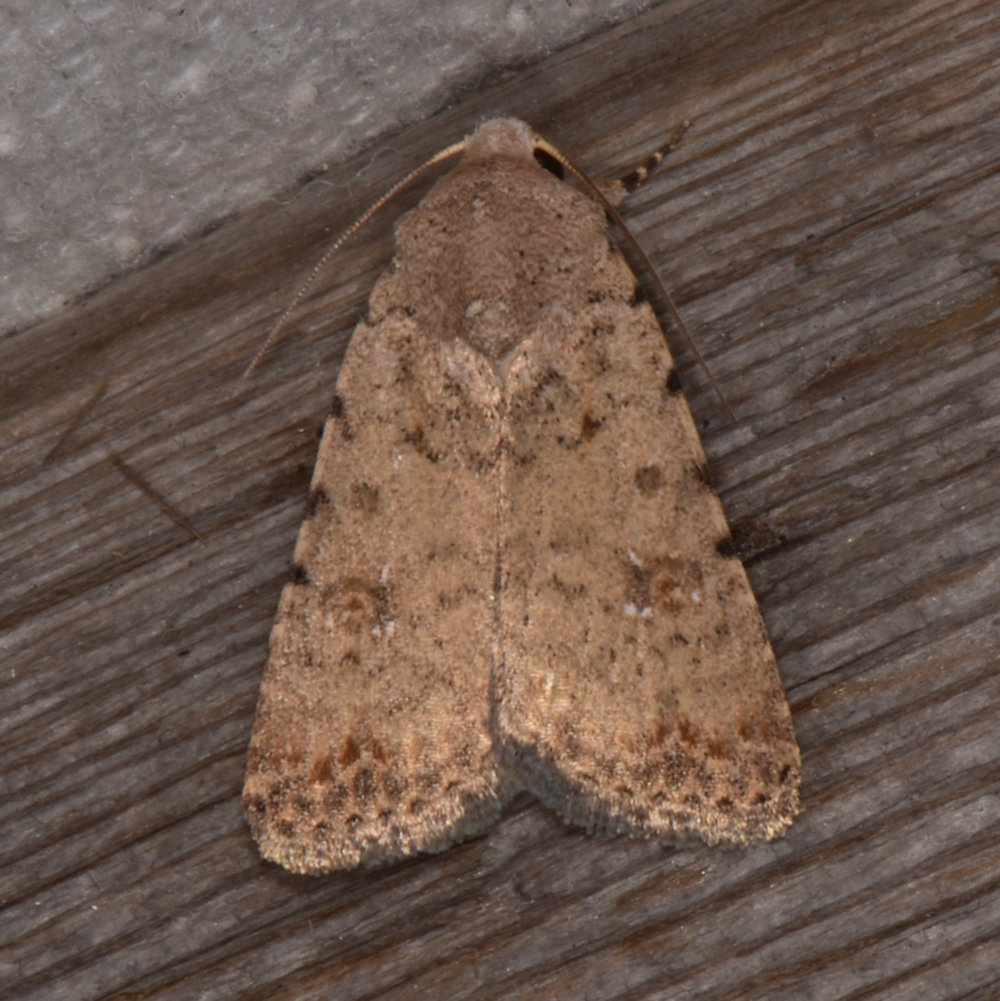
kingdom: Animalia
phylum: Arthropoda
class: Insecta
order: Lepidoptera
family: Noctuidae
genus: Caradrina
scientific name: Caradrina clavipalpis
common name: Pale mottled willow
